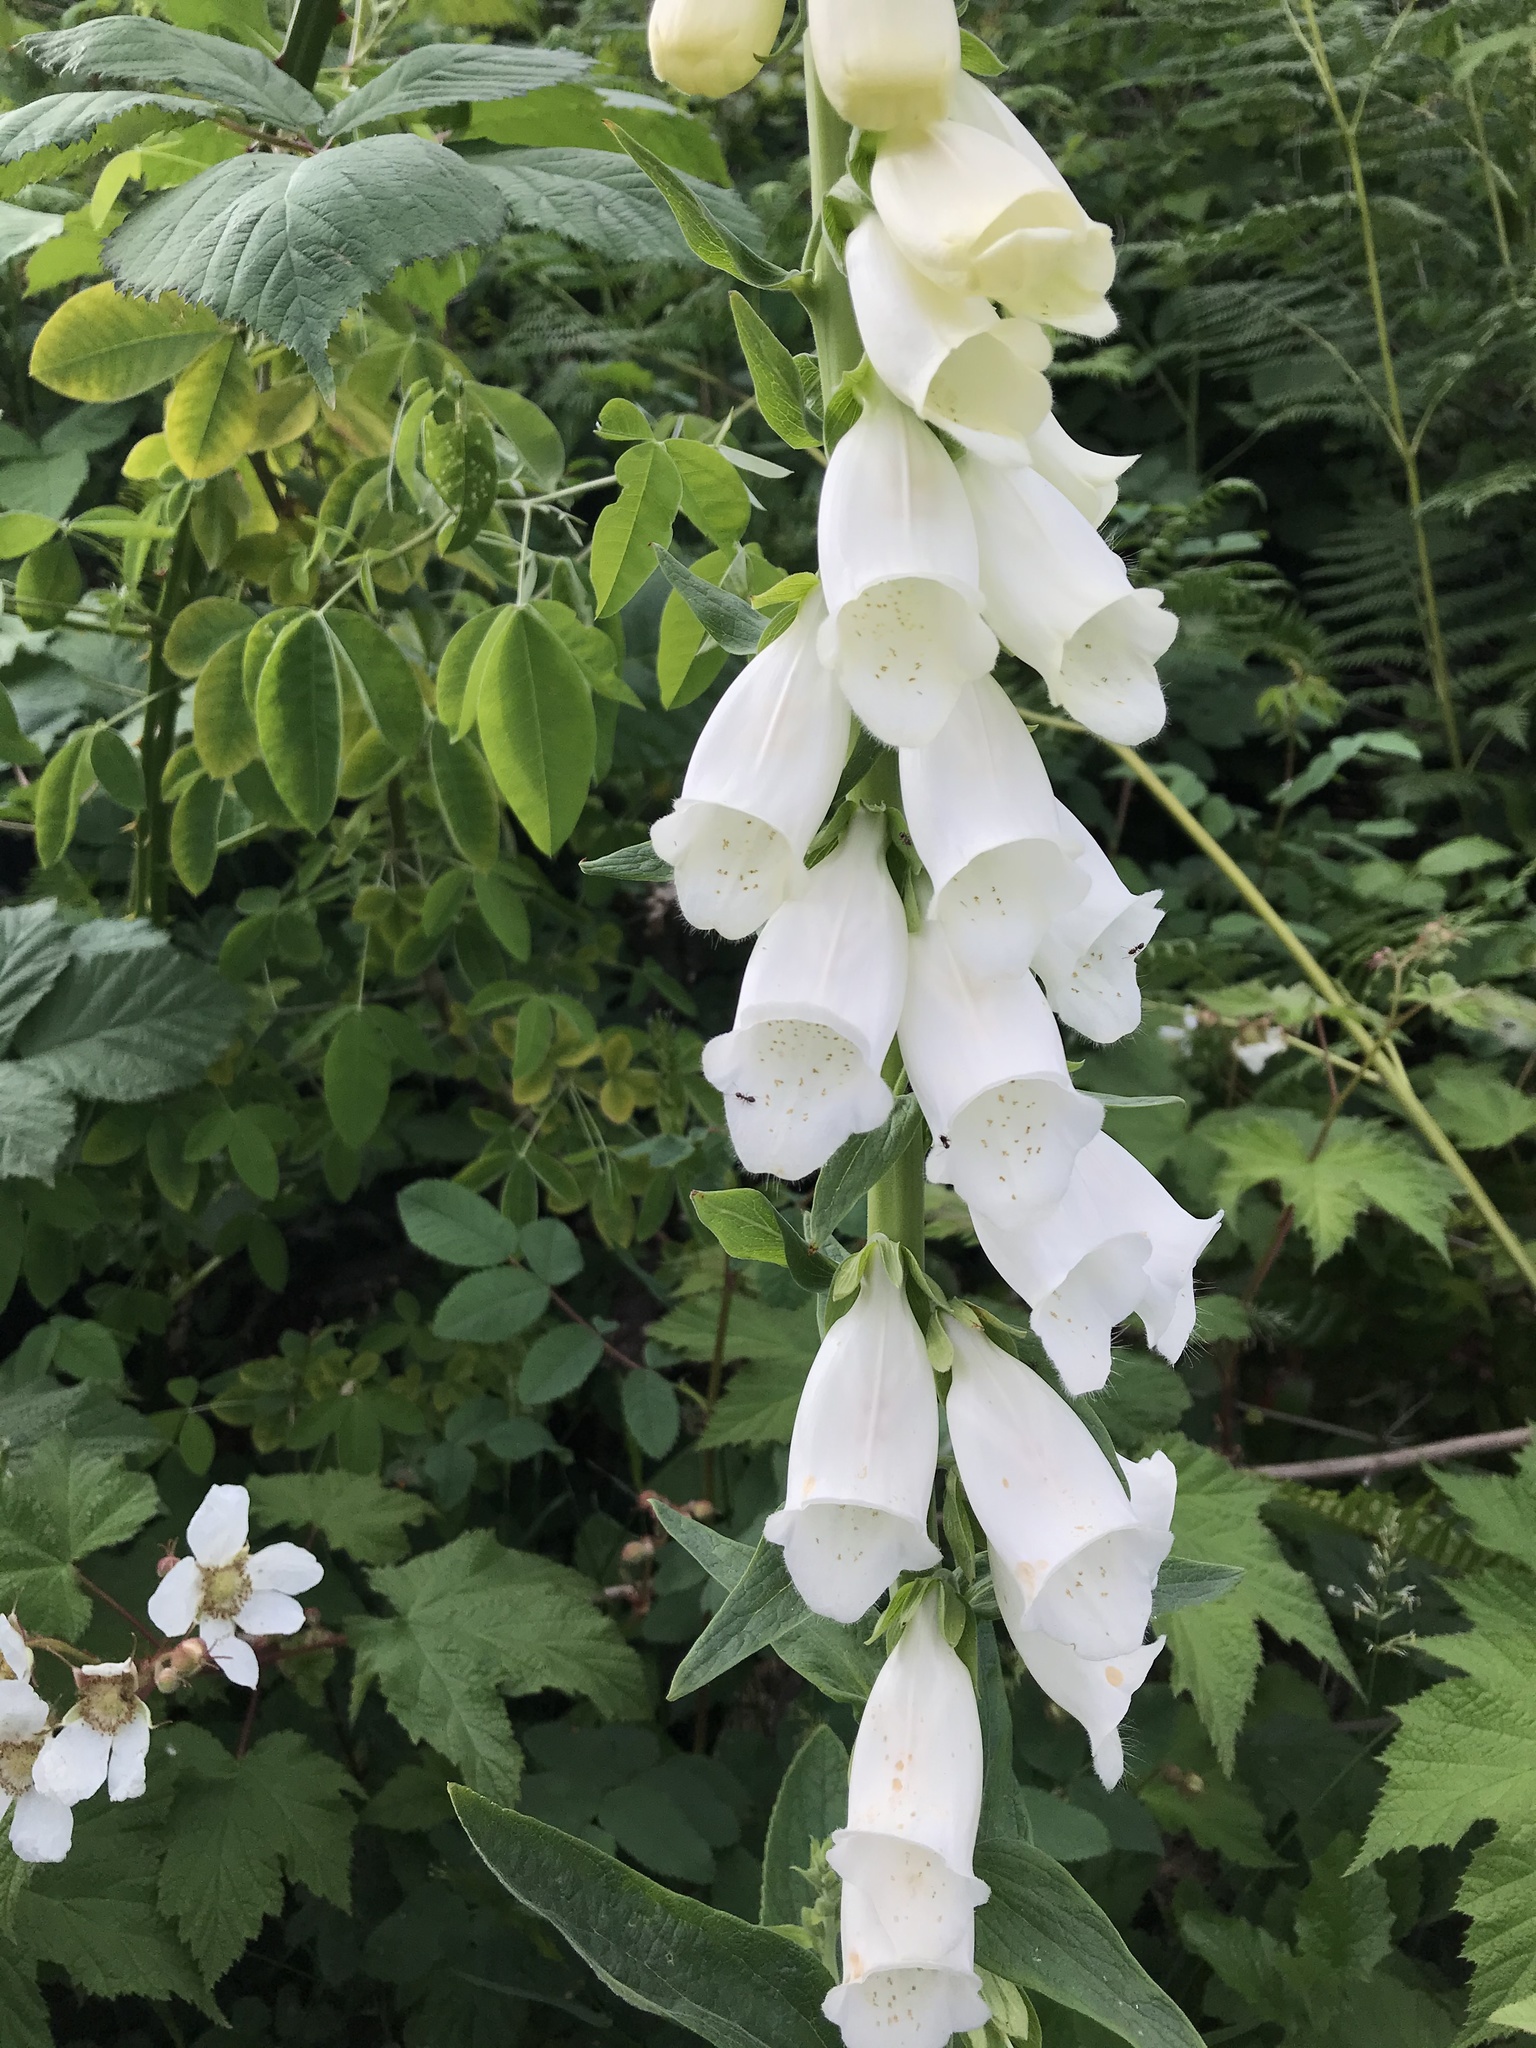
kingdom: Plantae
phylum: Tracheophyta
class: Magnoliopsida
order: Lamiales
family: Plantaginaceae
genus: Digitalis
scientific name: Digitalis purpurea
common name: Foxglove
